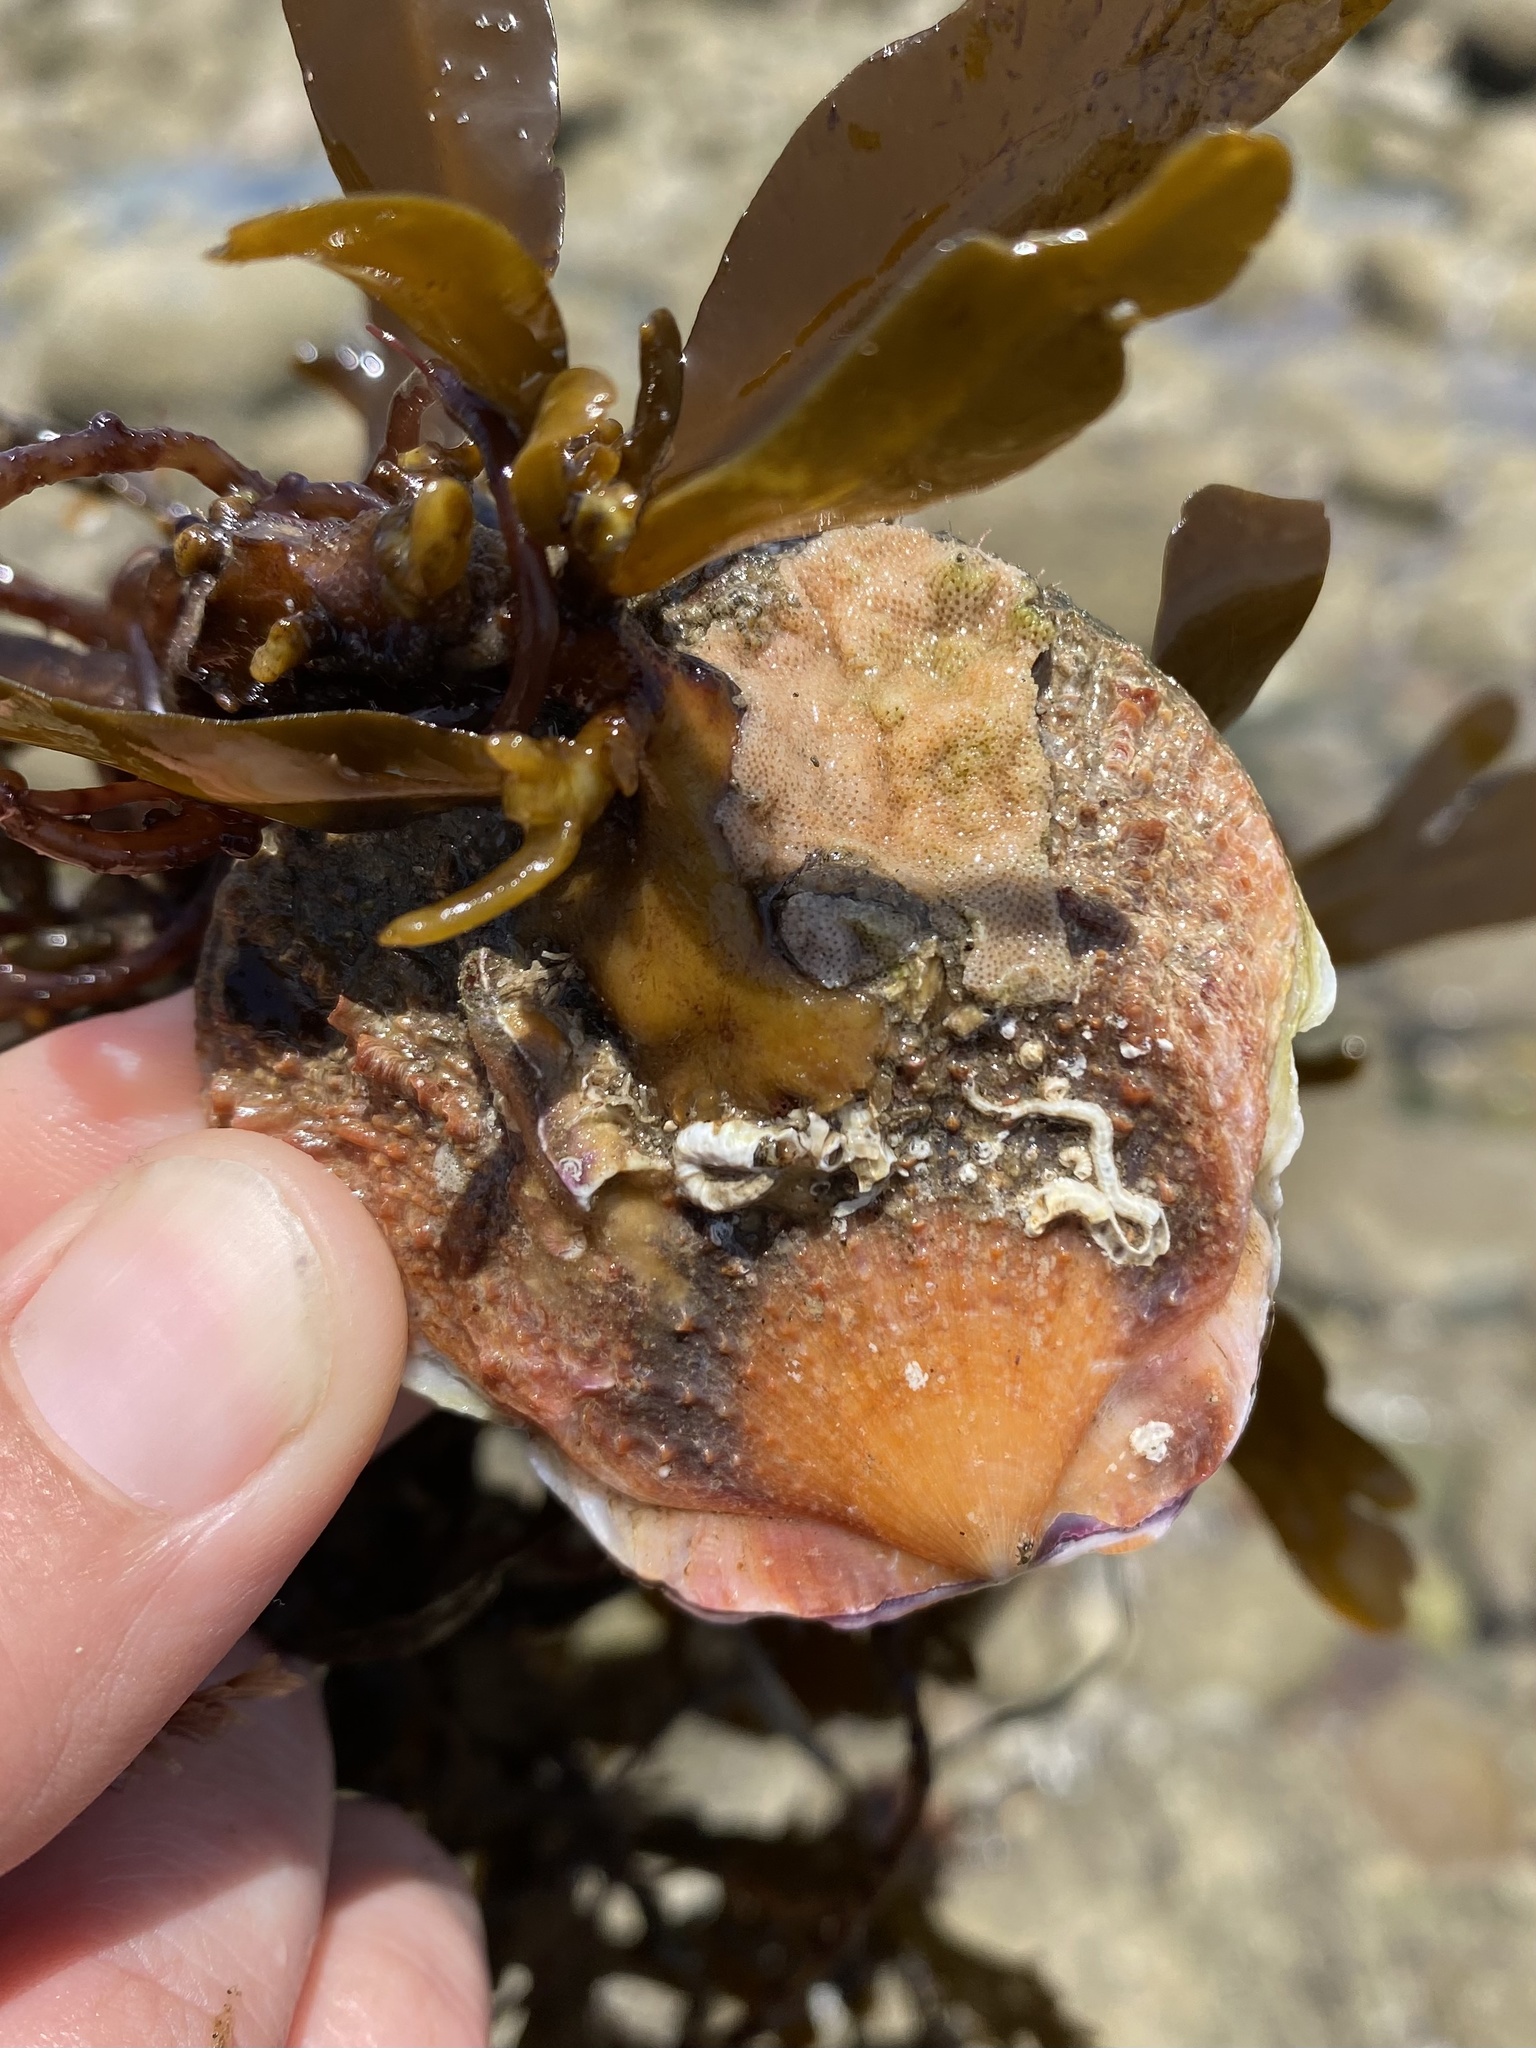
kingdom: Animalia
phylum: Mollusca
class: Bivalvia
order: Pectinida
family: Pectinidae
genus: Crassadoma
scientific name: Crassadoma gigantea
